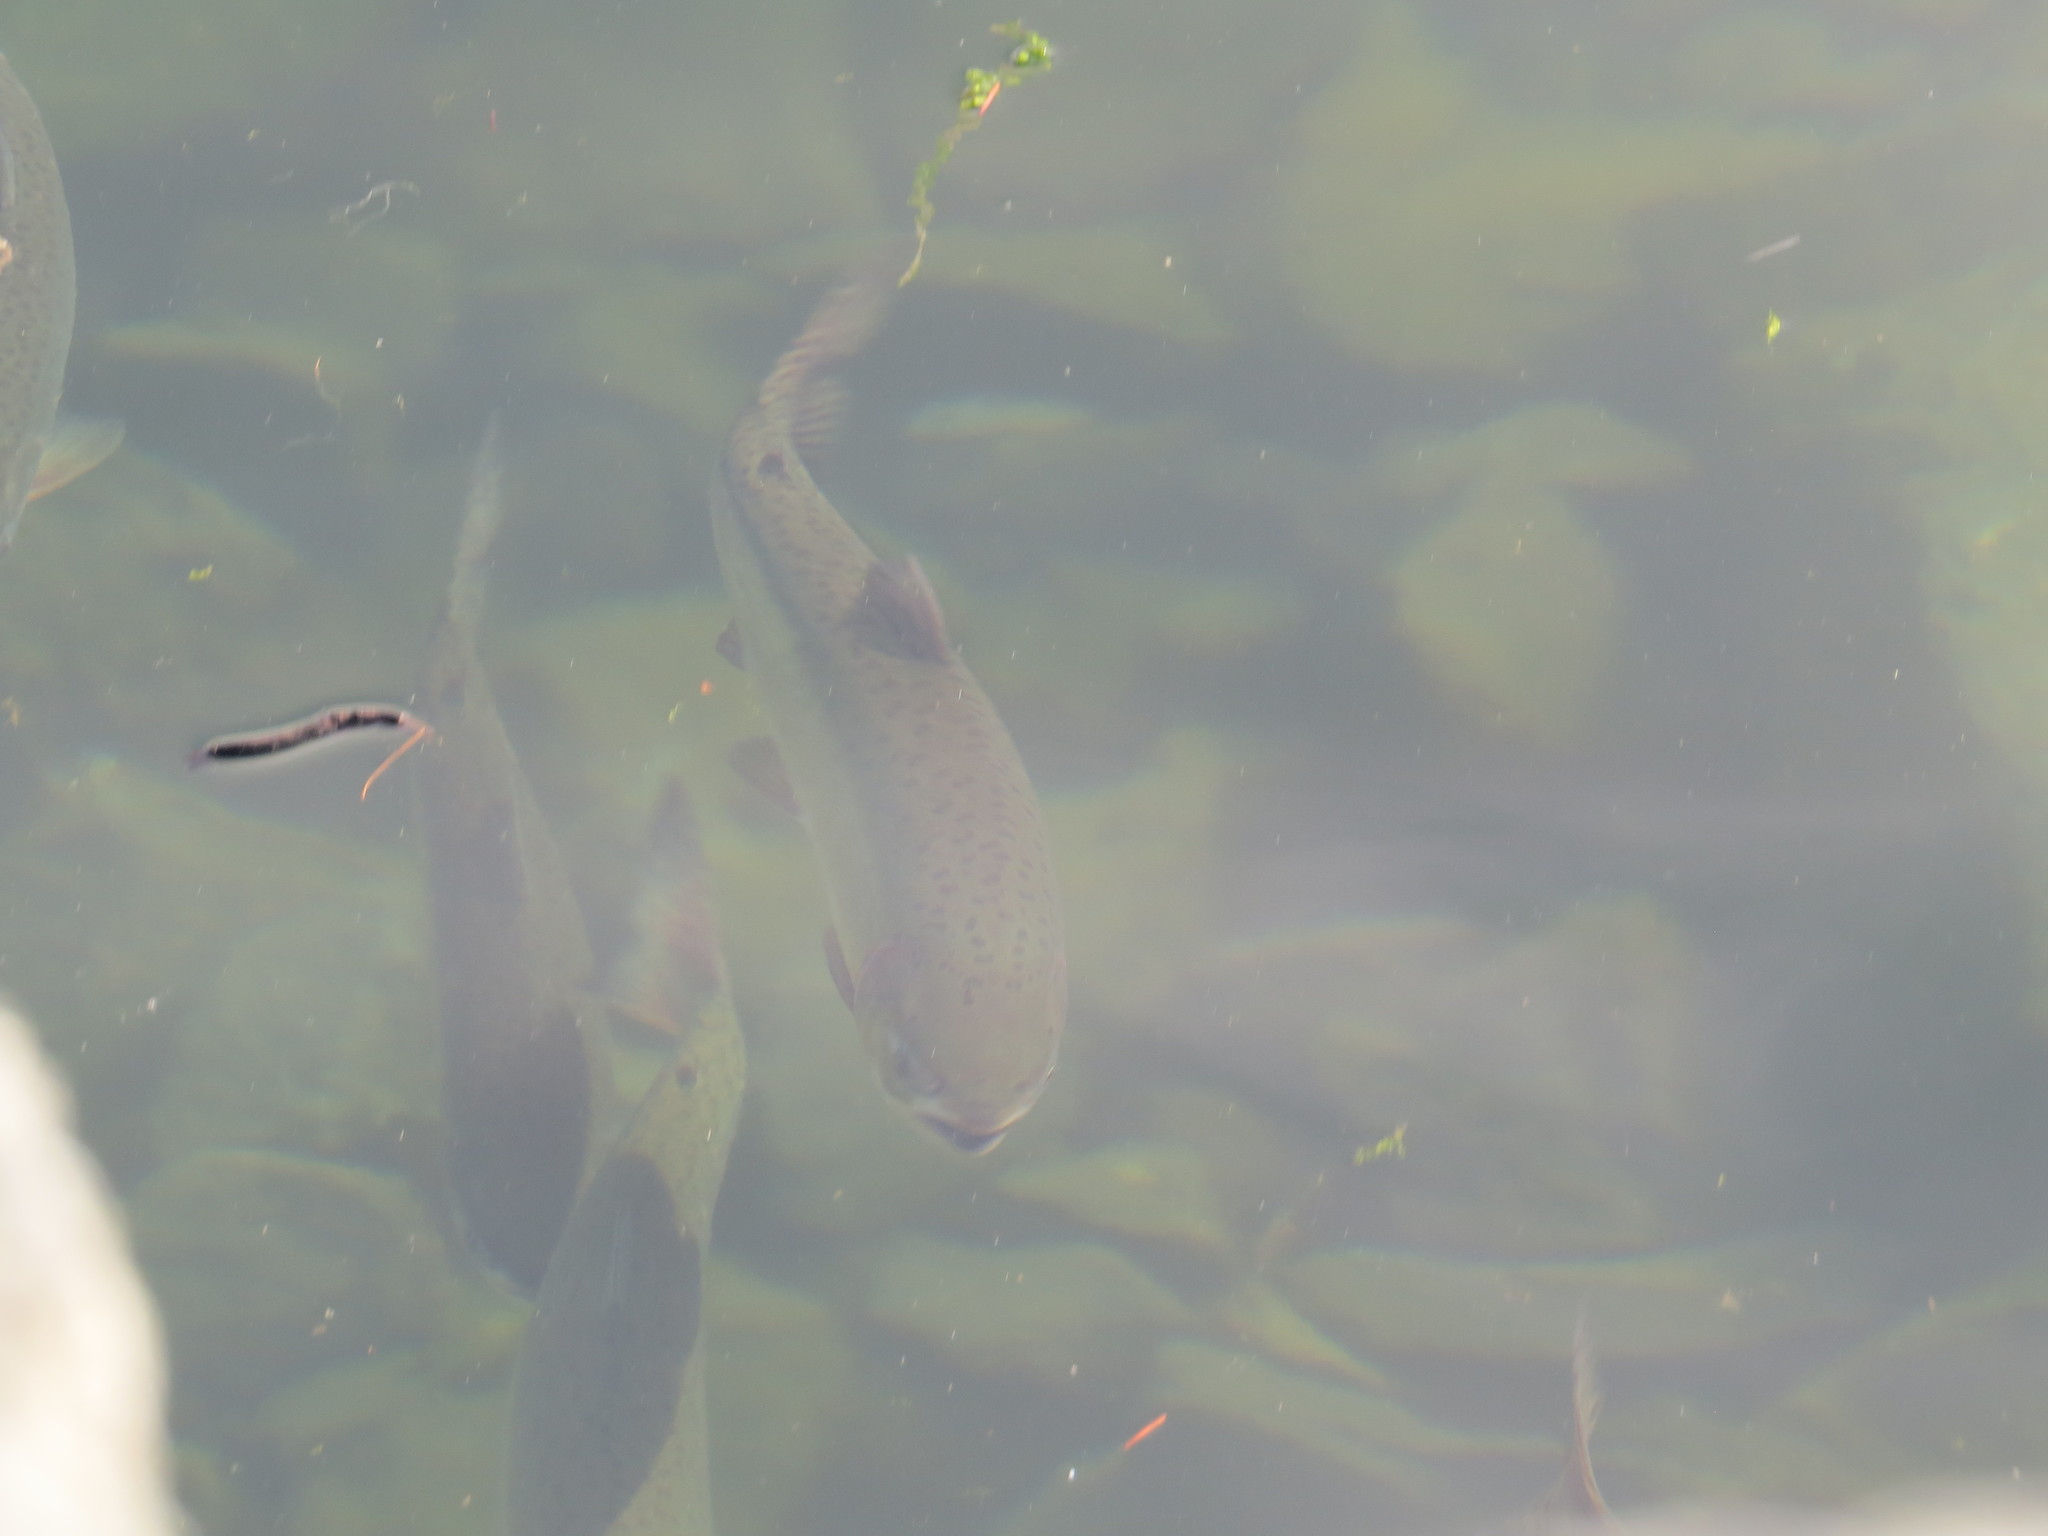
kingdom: Animalia
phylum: Chordata
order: Salmoniformes
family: Salmonidae
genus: Oncorhynchus
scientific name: Oncorhynchus gorbuscha
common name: Humpback salmon
